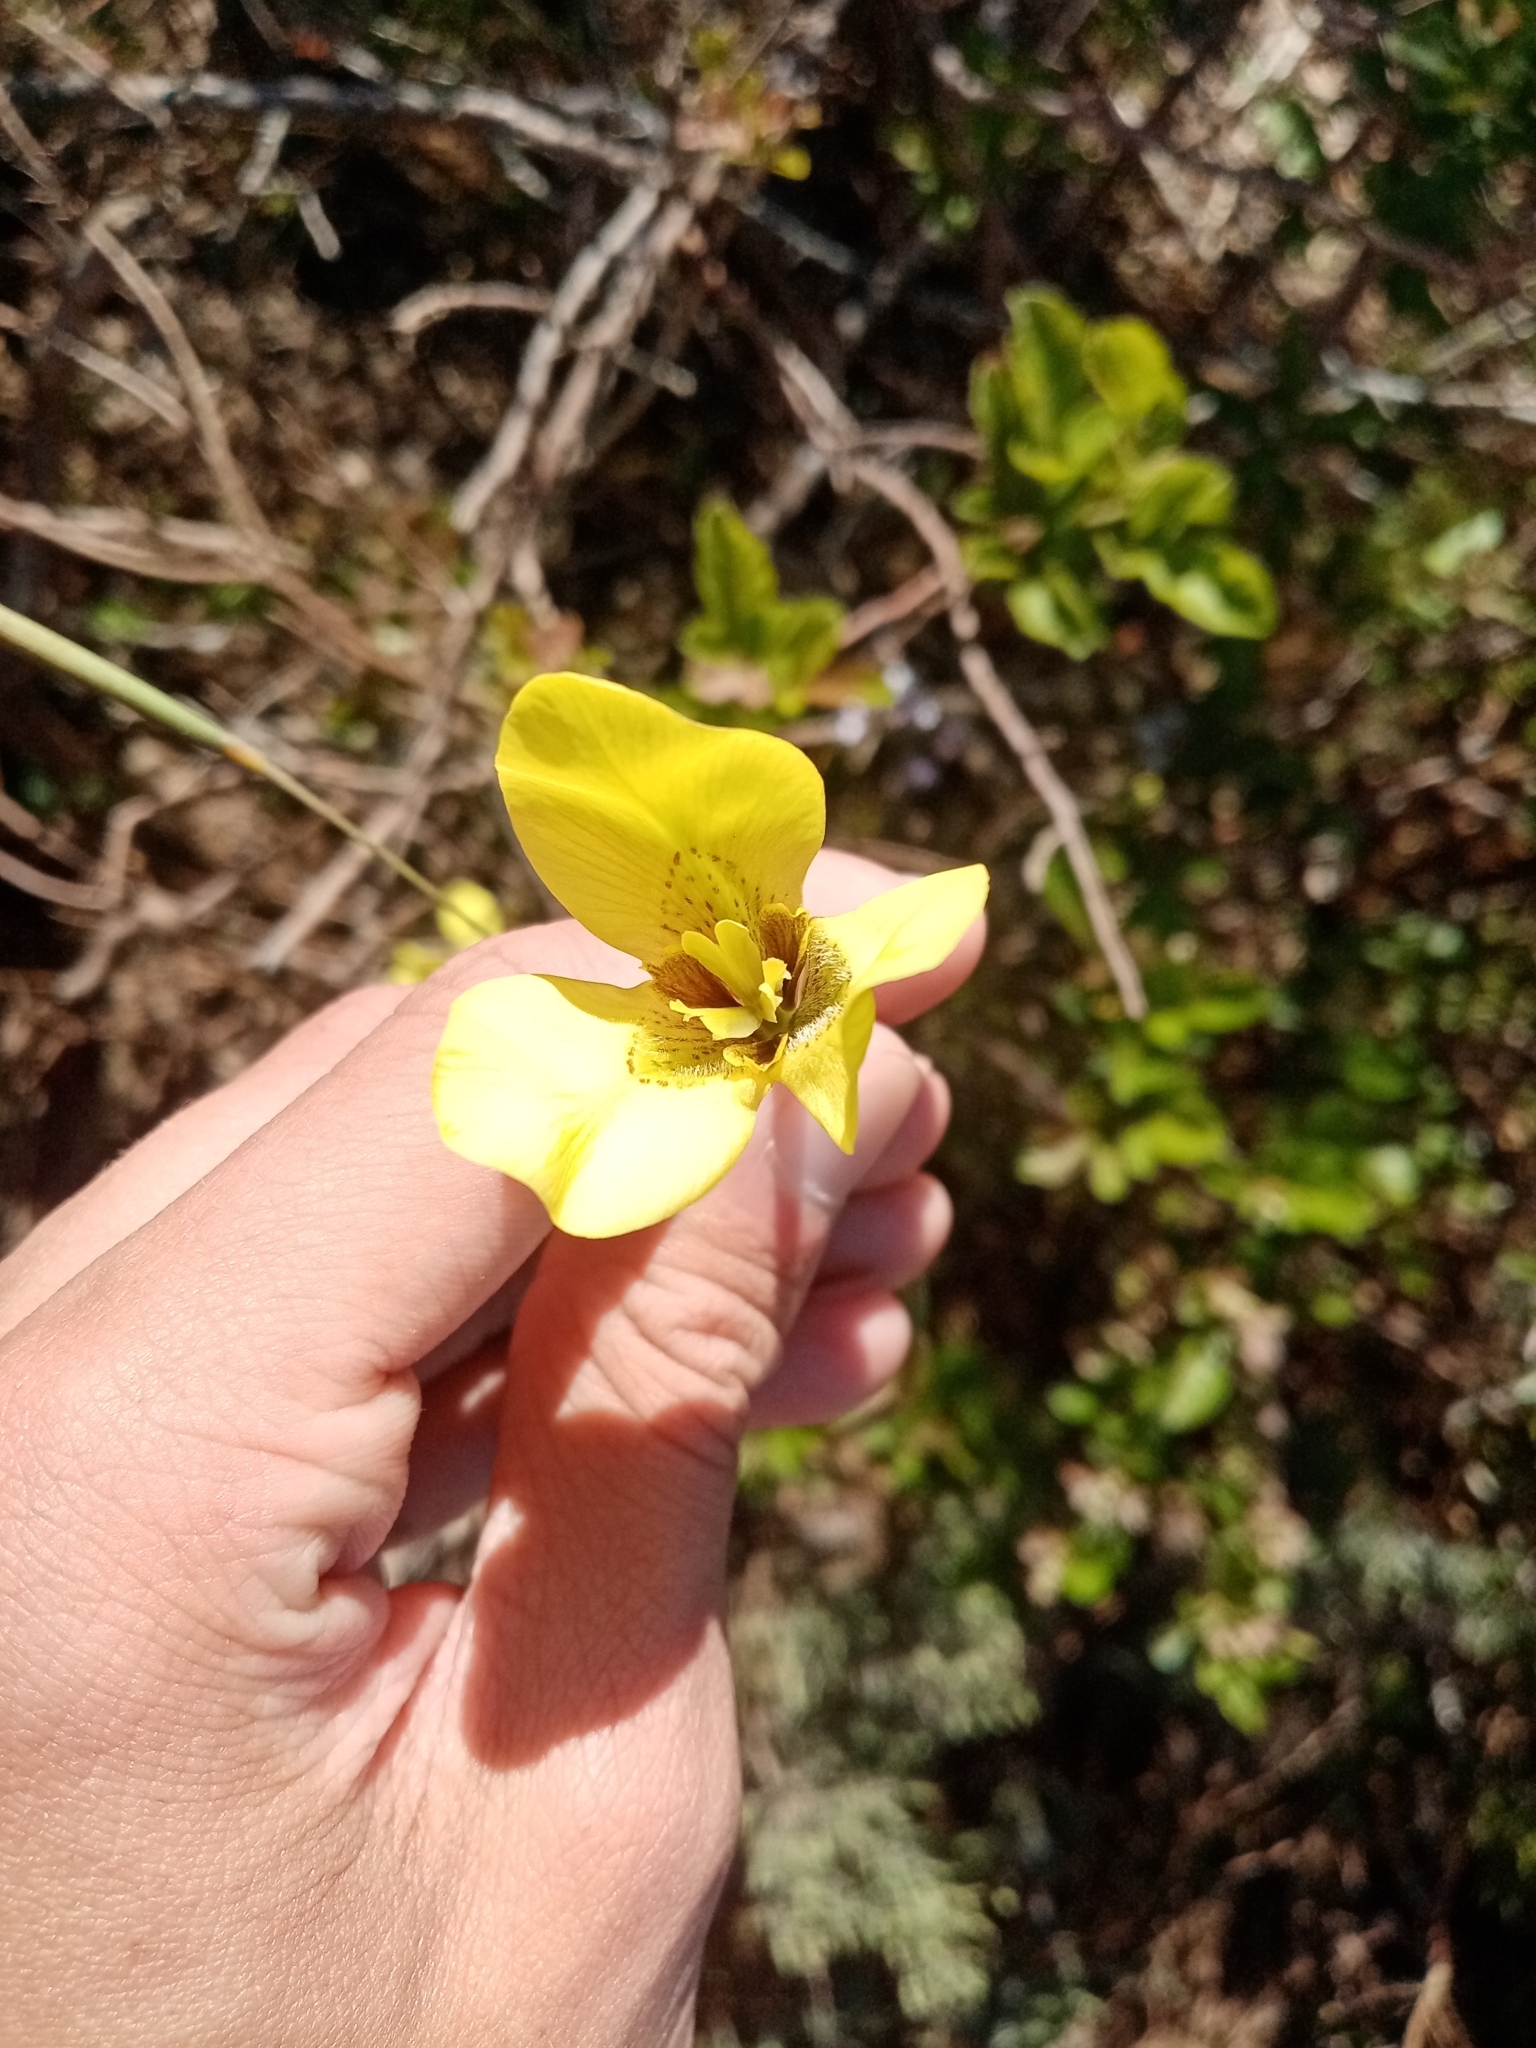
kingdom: Plantae
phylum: Tracheophyta
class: Liliopsida
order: Asparagales
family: Iridaceae
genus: Moraea
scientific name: Moraea bellendenii
